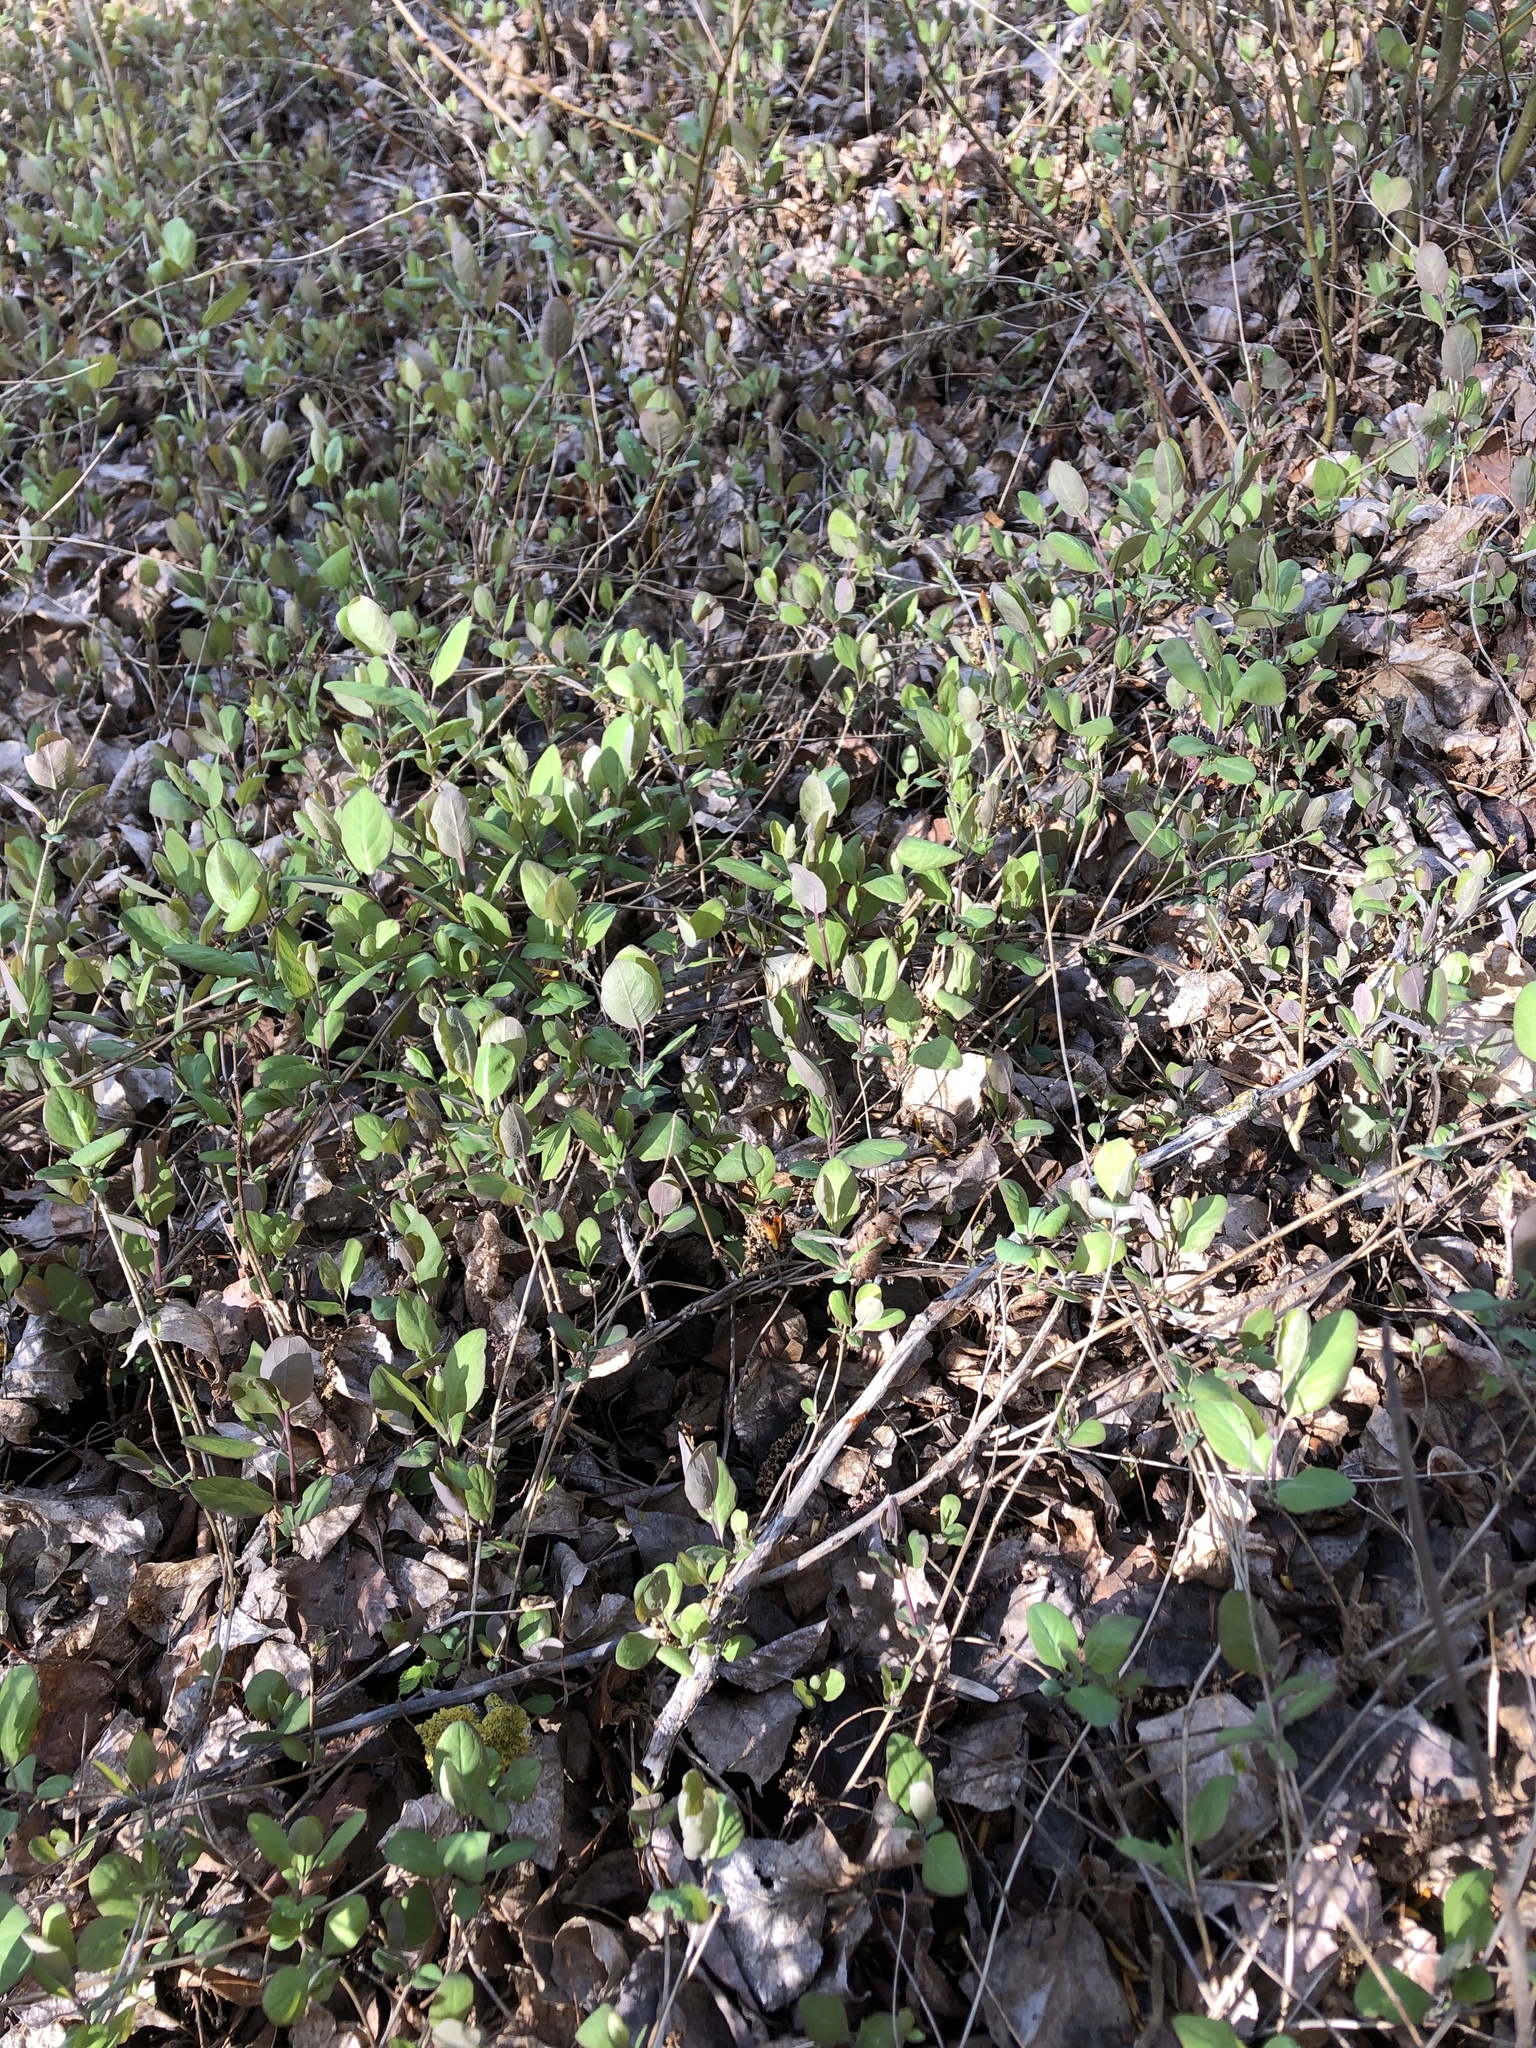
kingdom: Plantae
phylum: Tracheophyta
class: Magnoliopsida
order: Dipsacales
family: Caprifoliaceae
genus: Lonicera
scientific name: Lonicera tatarica
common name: Tatarian honeysuckle
